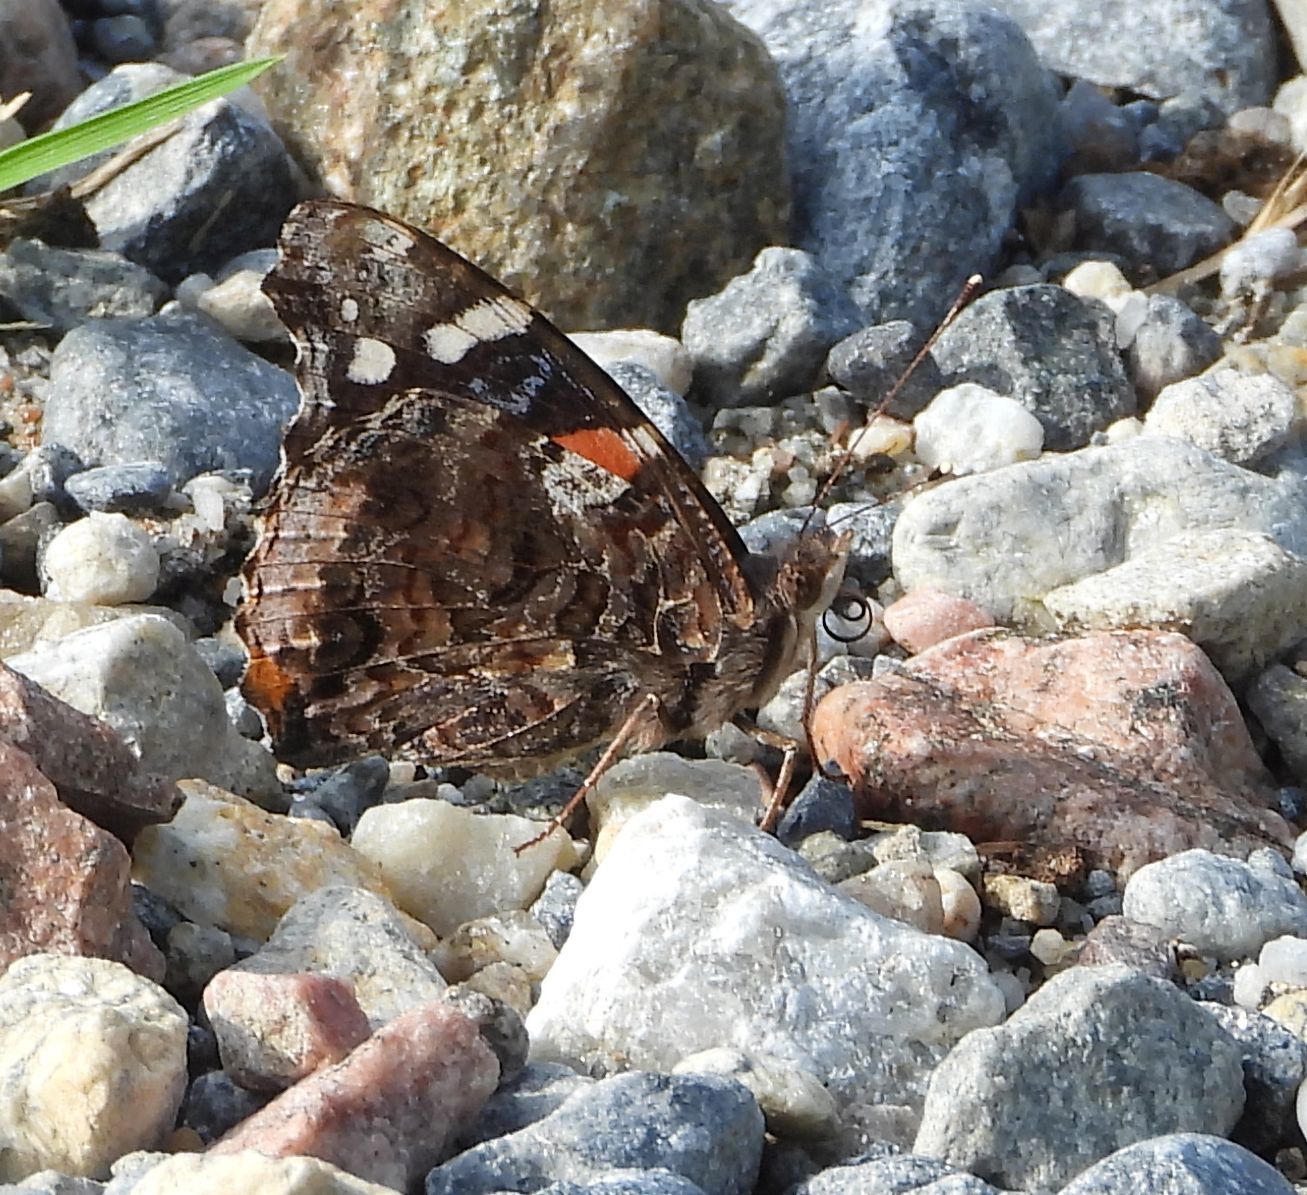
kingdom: Animalia
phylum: Arthropoda
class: Insecta
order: Lepidoptera
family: Nymphalidae
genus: Vanessa
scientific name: Vanessa atalanta
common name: Red admiral
